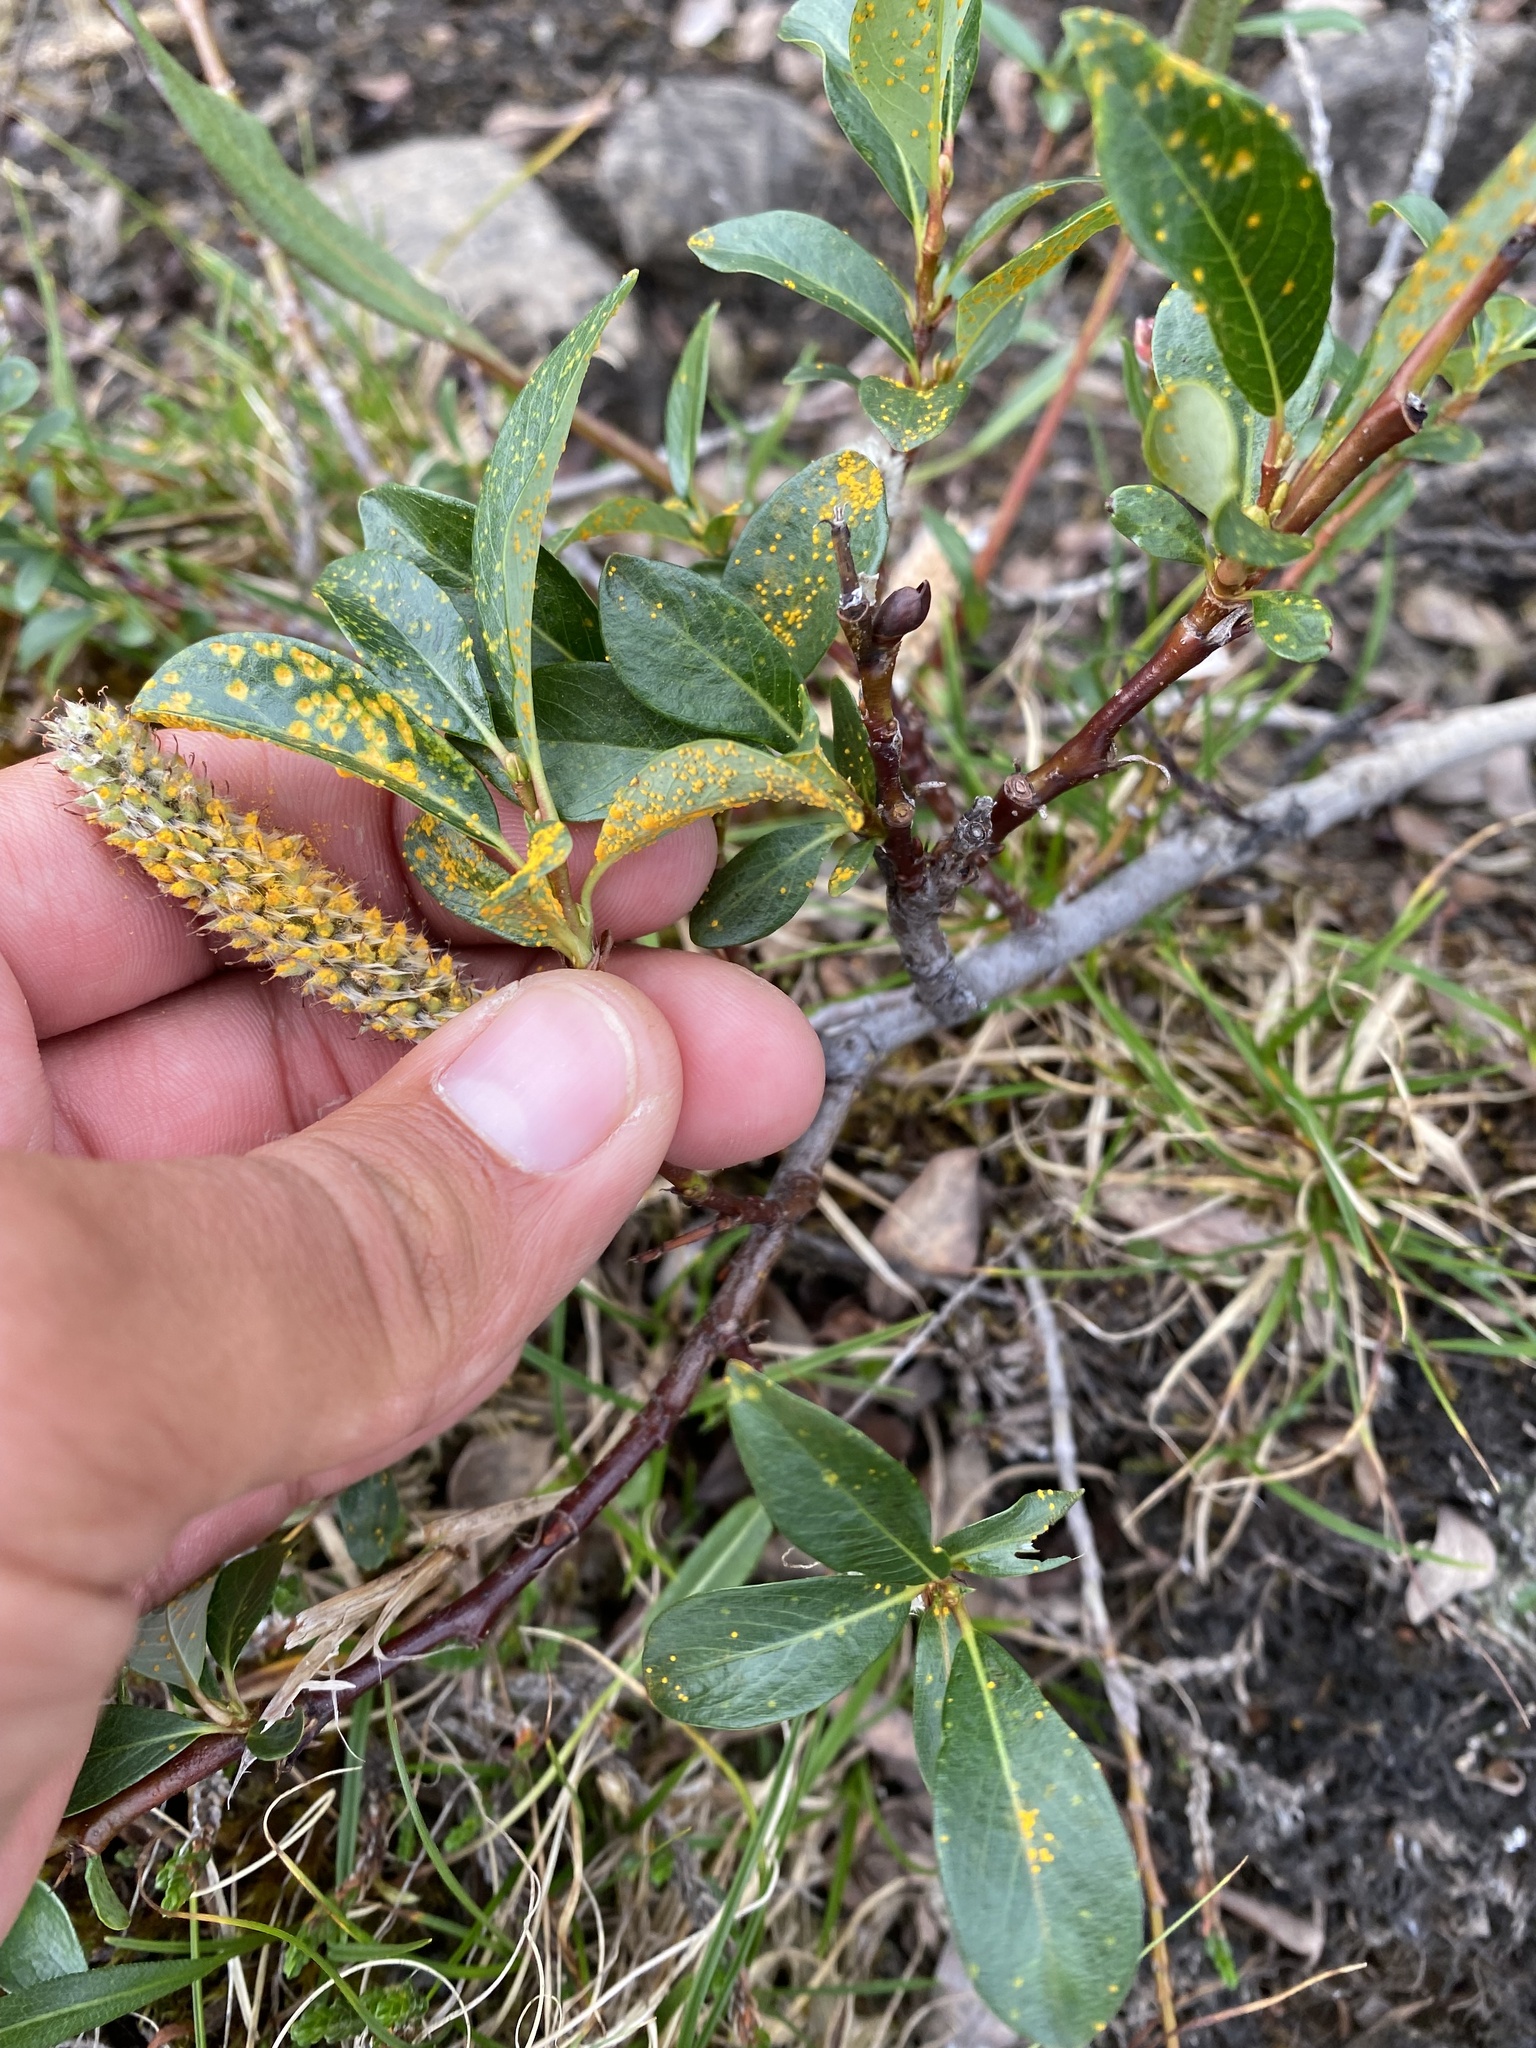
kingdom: Plantae
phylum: Tracheophyta
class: Magnoliopsida
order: Malpighiales
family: Salicaceae
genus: Salix
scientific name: Salix pulchra
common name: Diamond-leaved willow
